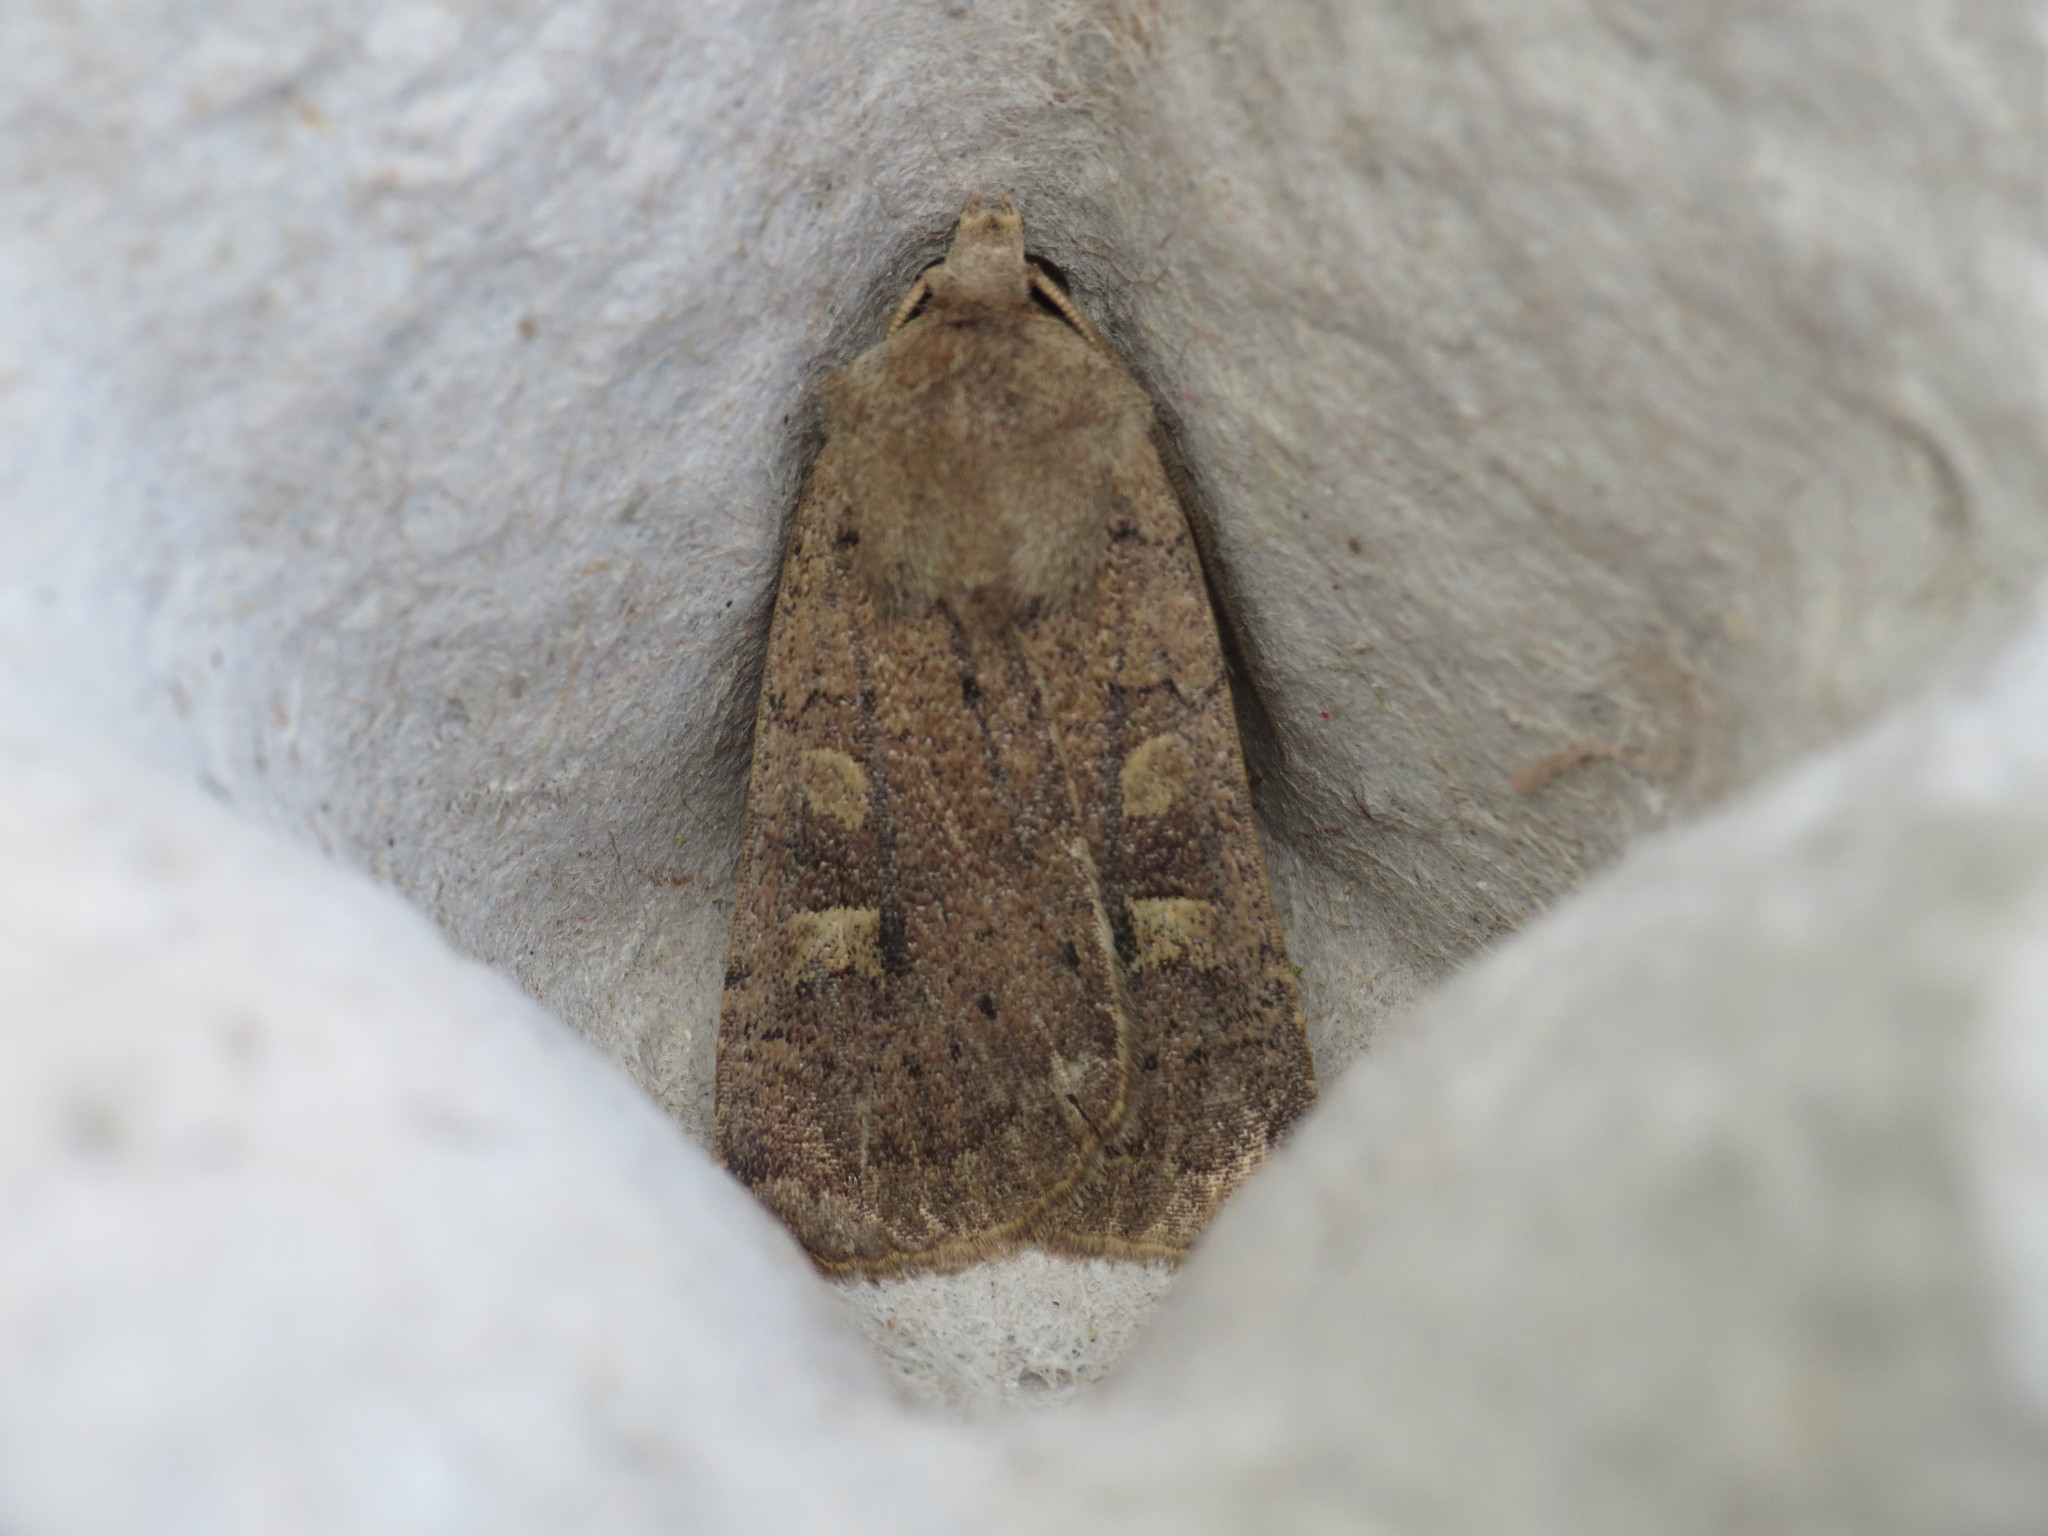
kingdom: Animalia
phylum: Arthropoda
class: Insecta
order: Lepidoptera
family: Noctuidae
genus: Xestia
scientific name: Xestia xanthographa
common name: Square-spot rustic
